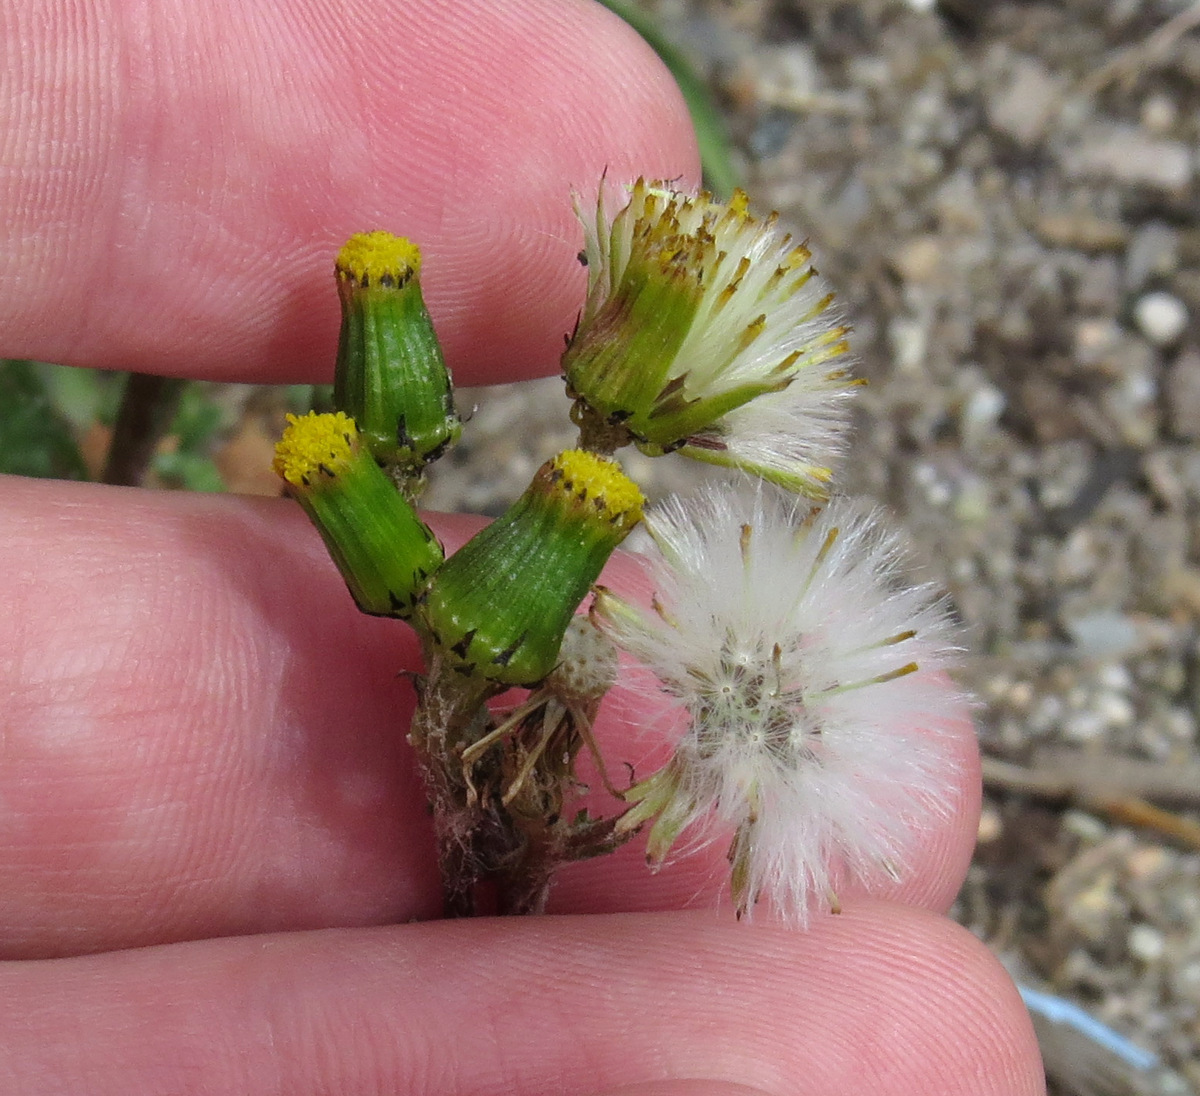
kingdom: Plantae
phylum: Tracheophyta
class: Magnoliopsida
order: Asterales
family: Asteraceae
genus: Senecio
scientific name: Senecio vulgaris
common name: Old-man-in-the-spring
